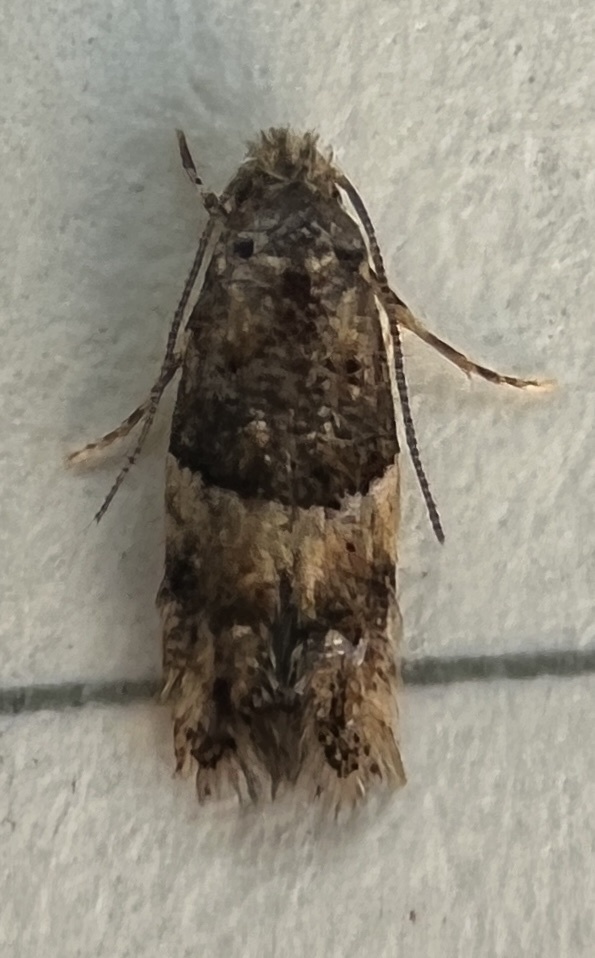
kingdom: Animalia
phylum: Arthropoda
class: Insecta
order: Lepidoptera
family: Meessiidae
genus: Oenoe
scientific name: Oenoe euphrantis
